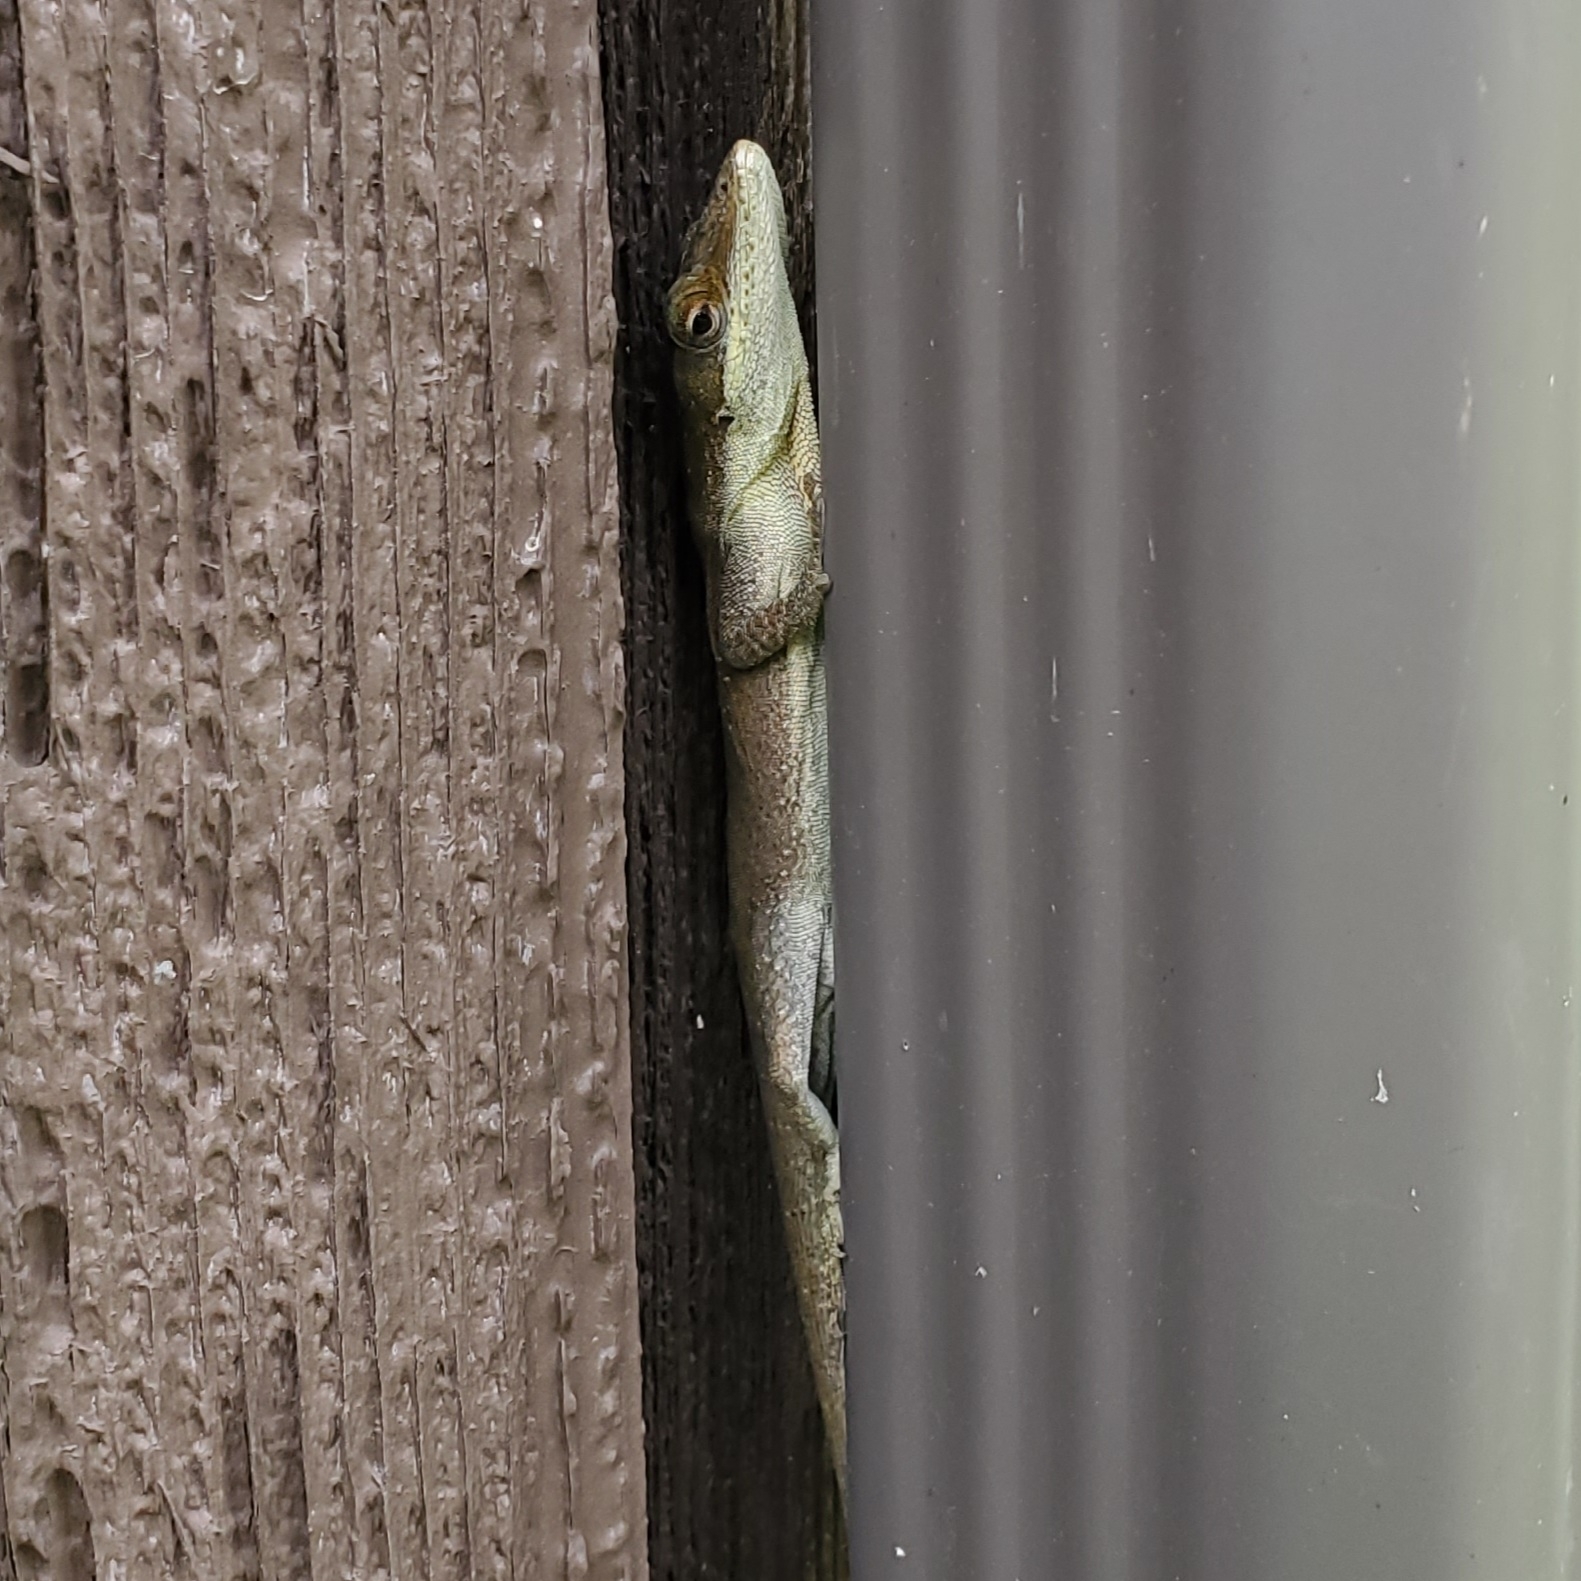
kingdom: Animalia
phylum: Chordata
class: Squamata
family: Dactyloidae
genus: Anolis
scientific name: Anolis carolinensis
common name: Green anole
